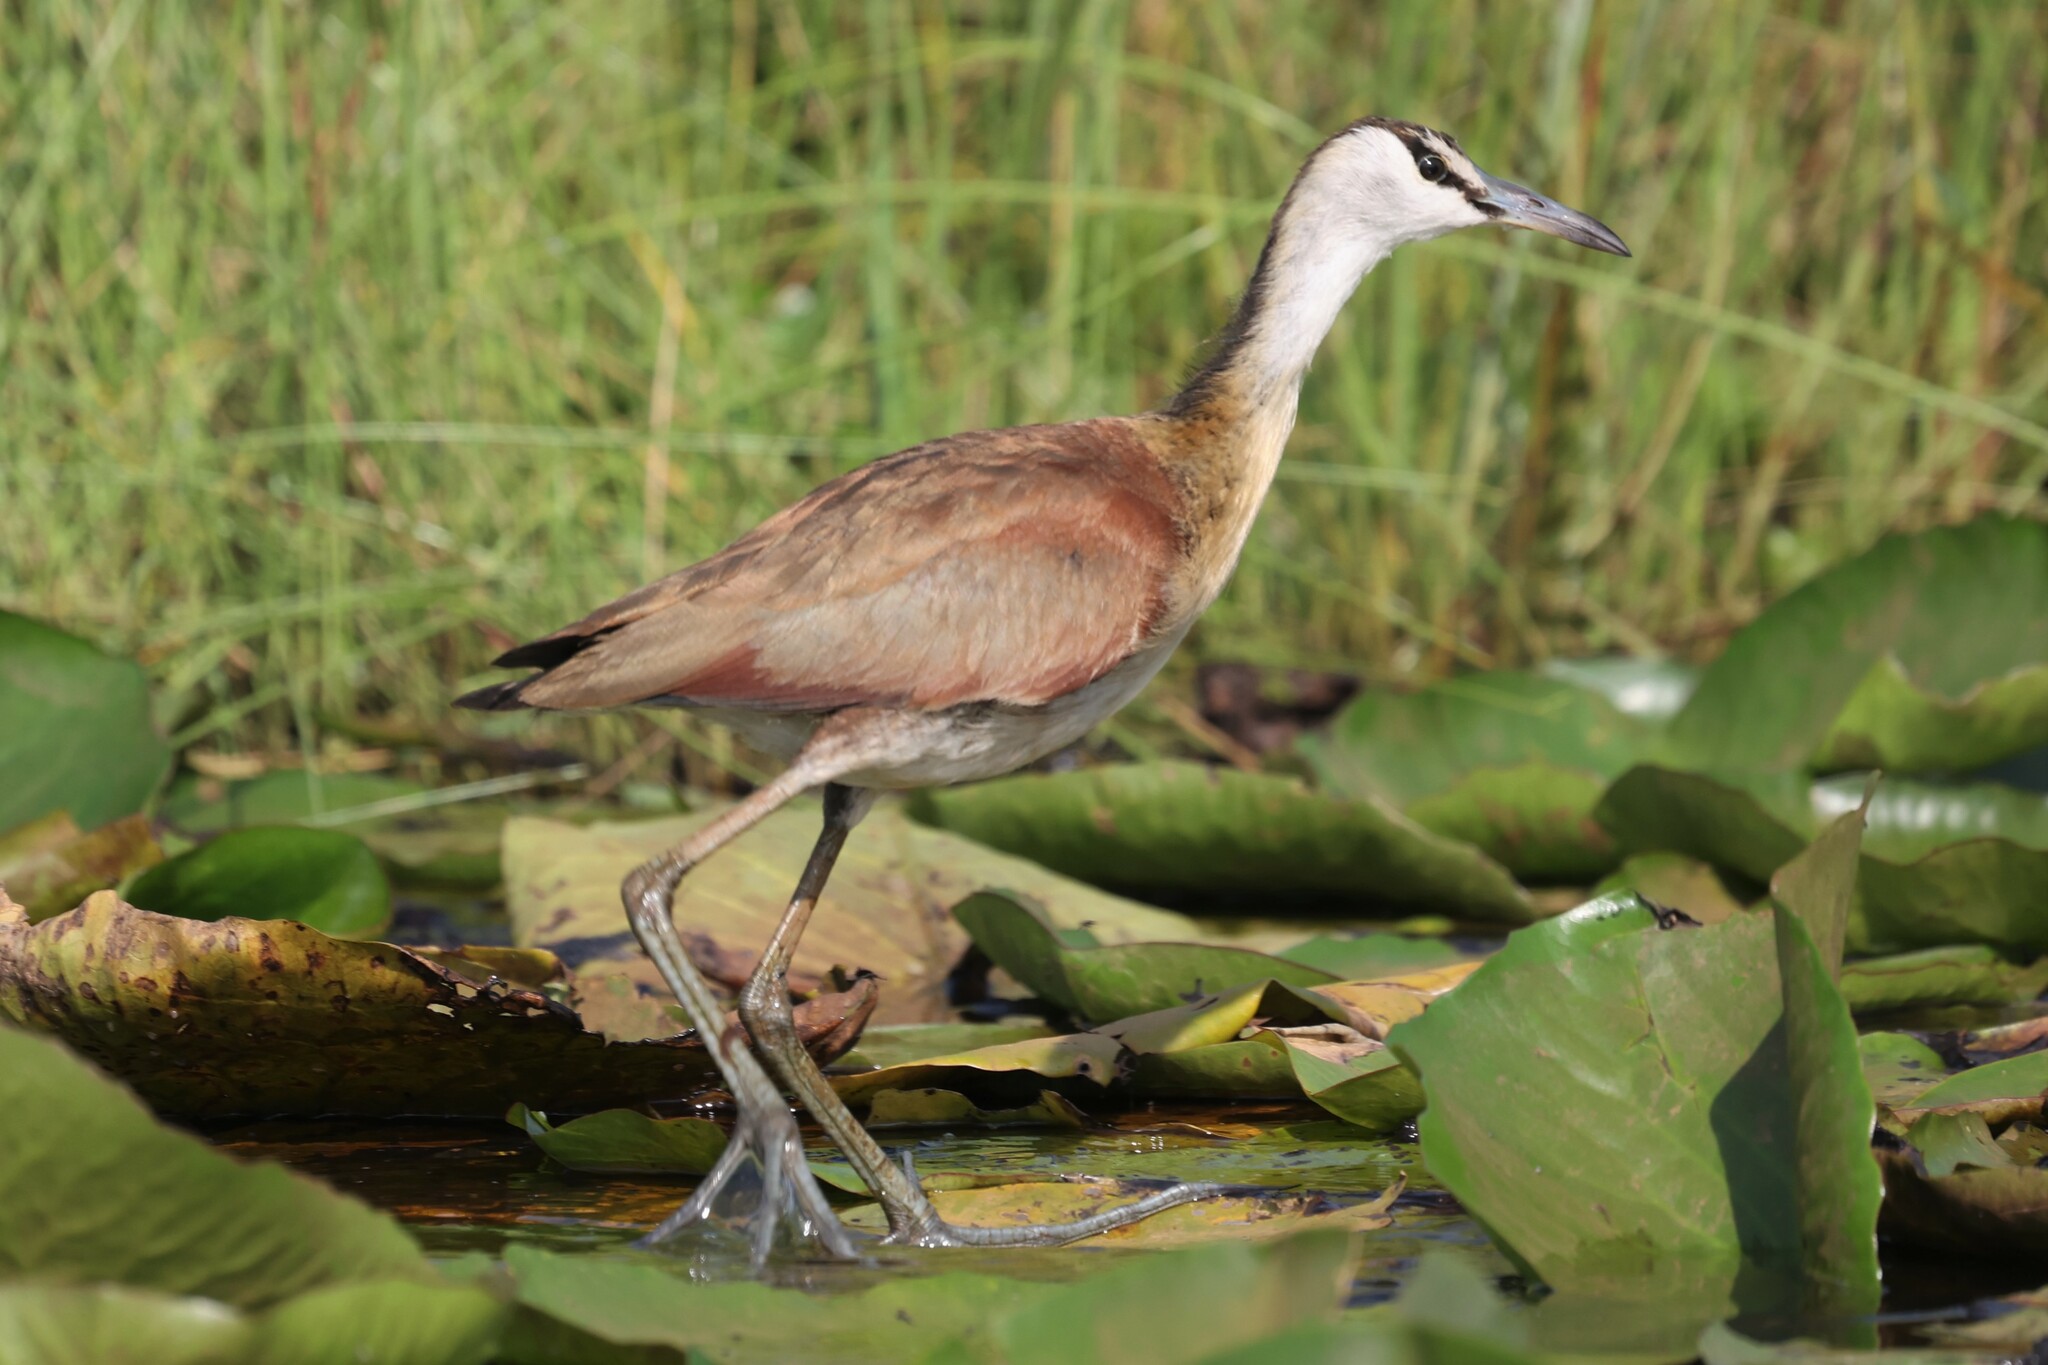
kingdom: Animalia
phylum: Chordata
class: Aves
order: Charadriiformes
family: Jacanidae
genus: Actophilornis
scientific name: Actophilornis africanus
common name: African jacana
